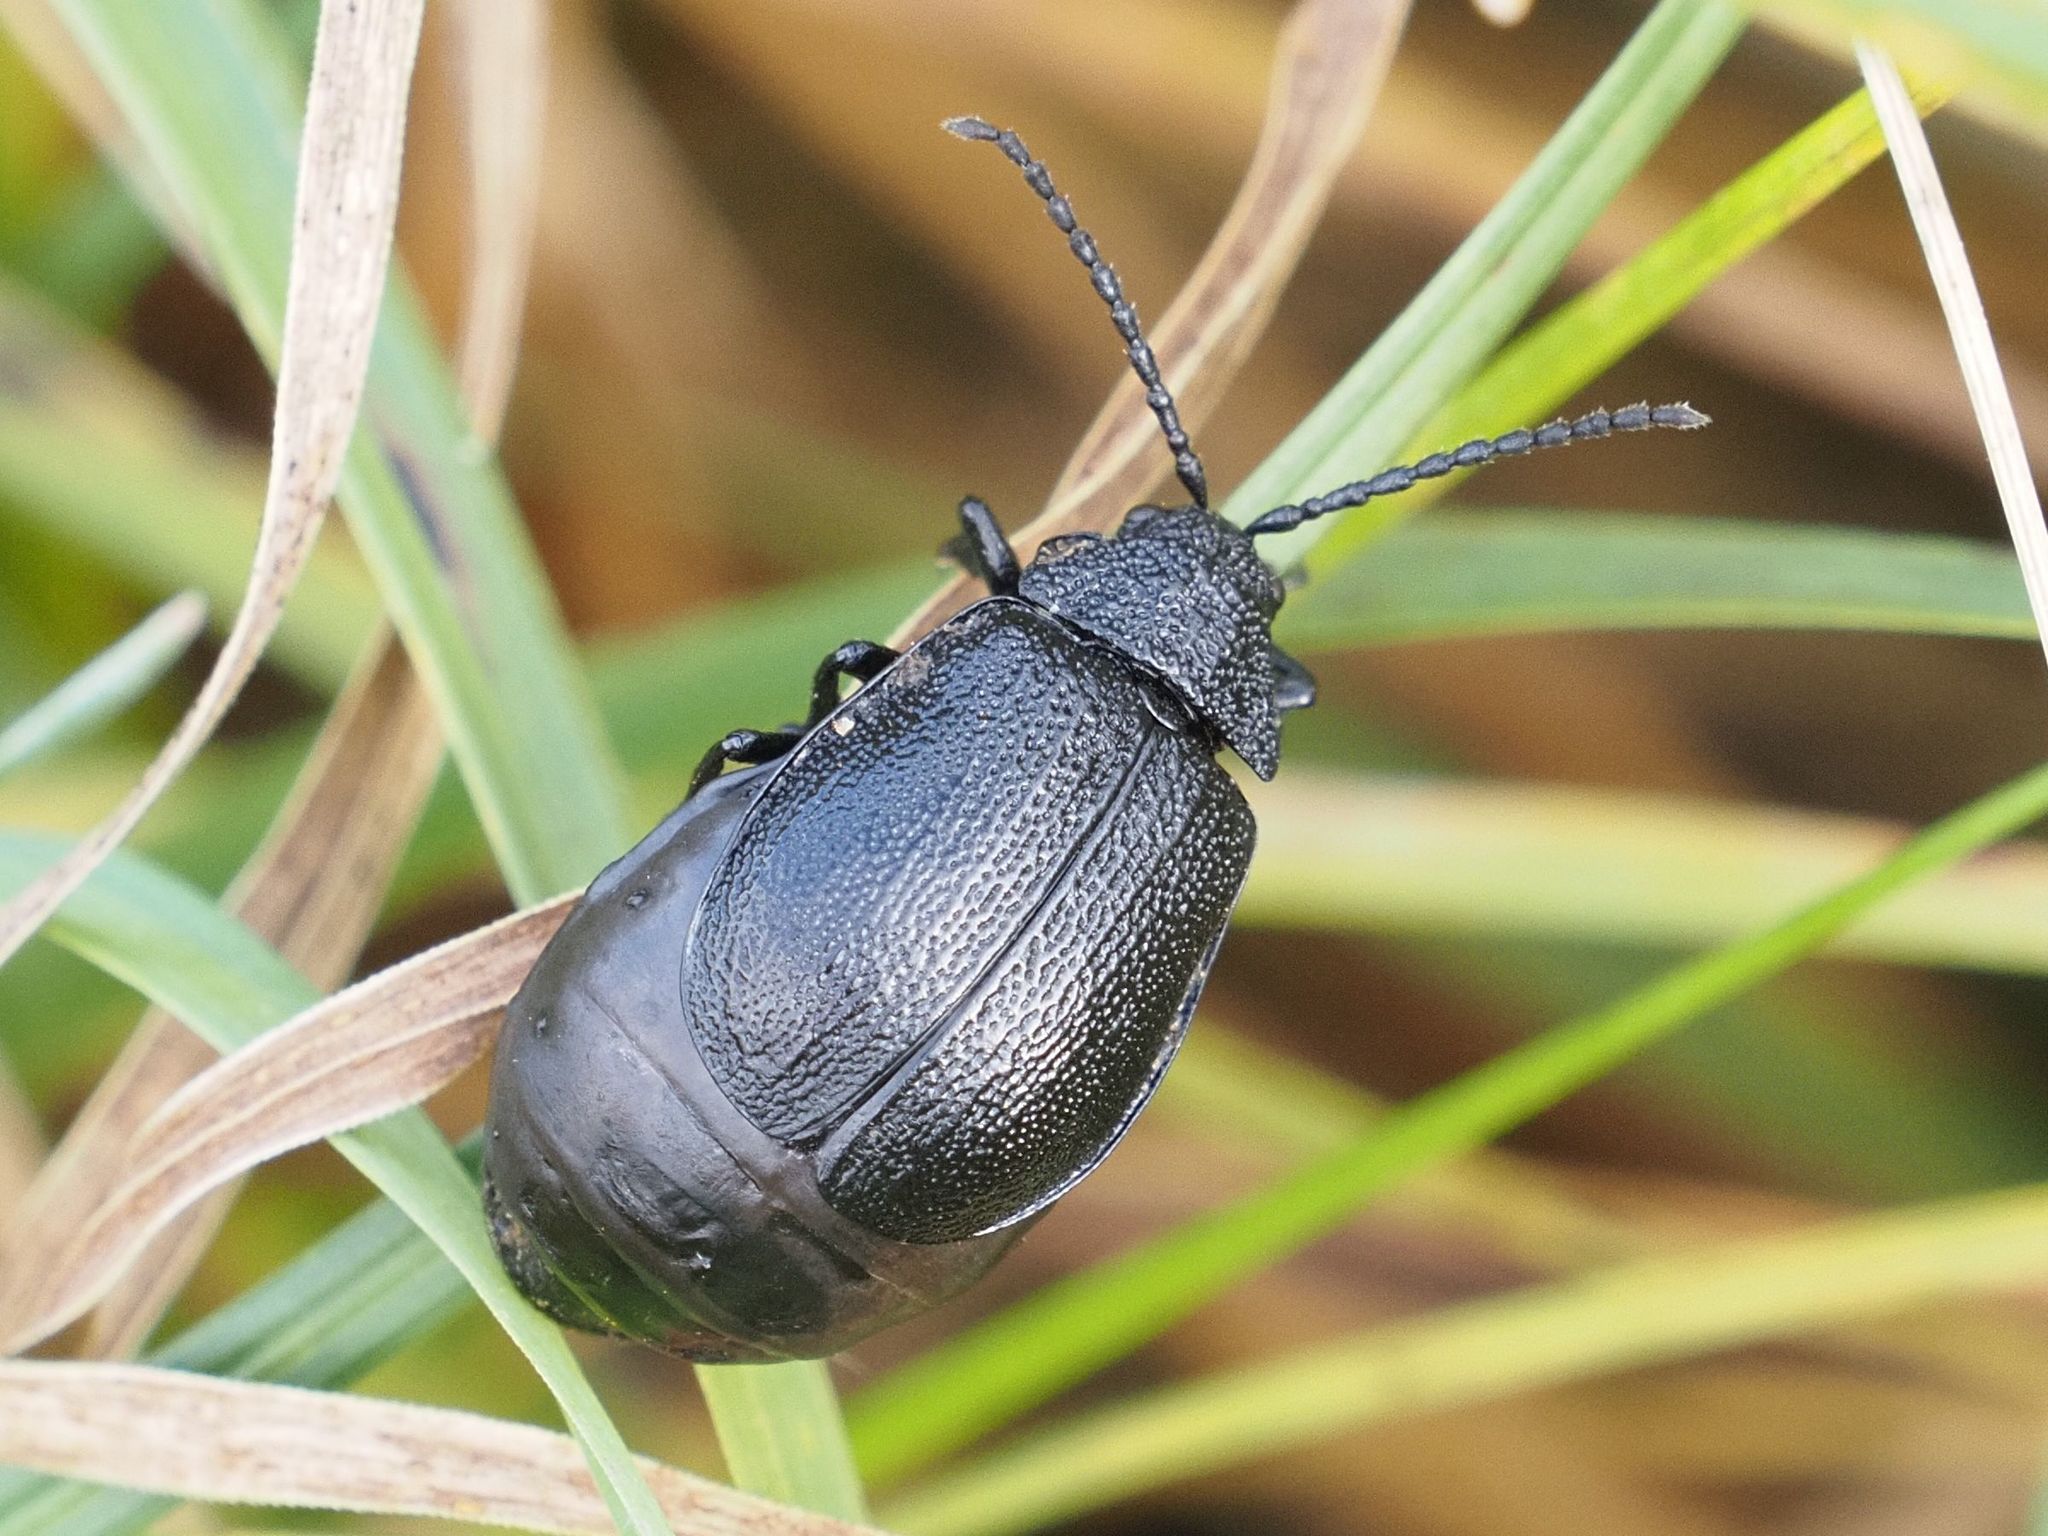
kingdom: Animalia
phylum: Arthropoda
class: Insecta
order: Coleoptera
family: Chrysomelidae
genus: Galeruca
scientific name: Galeruca tanaceti
